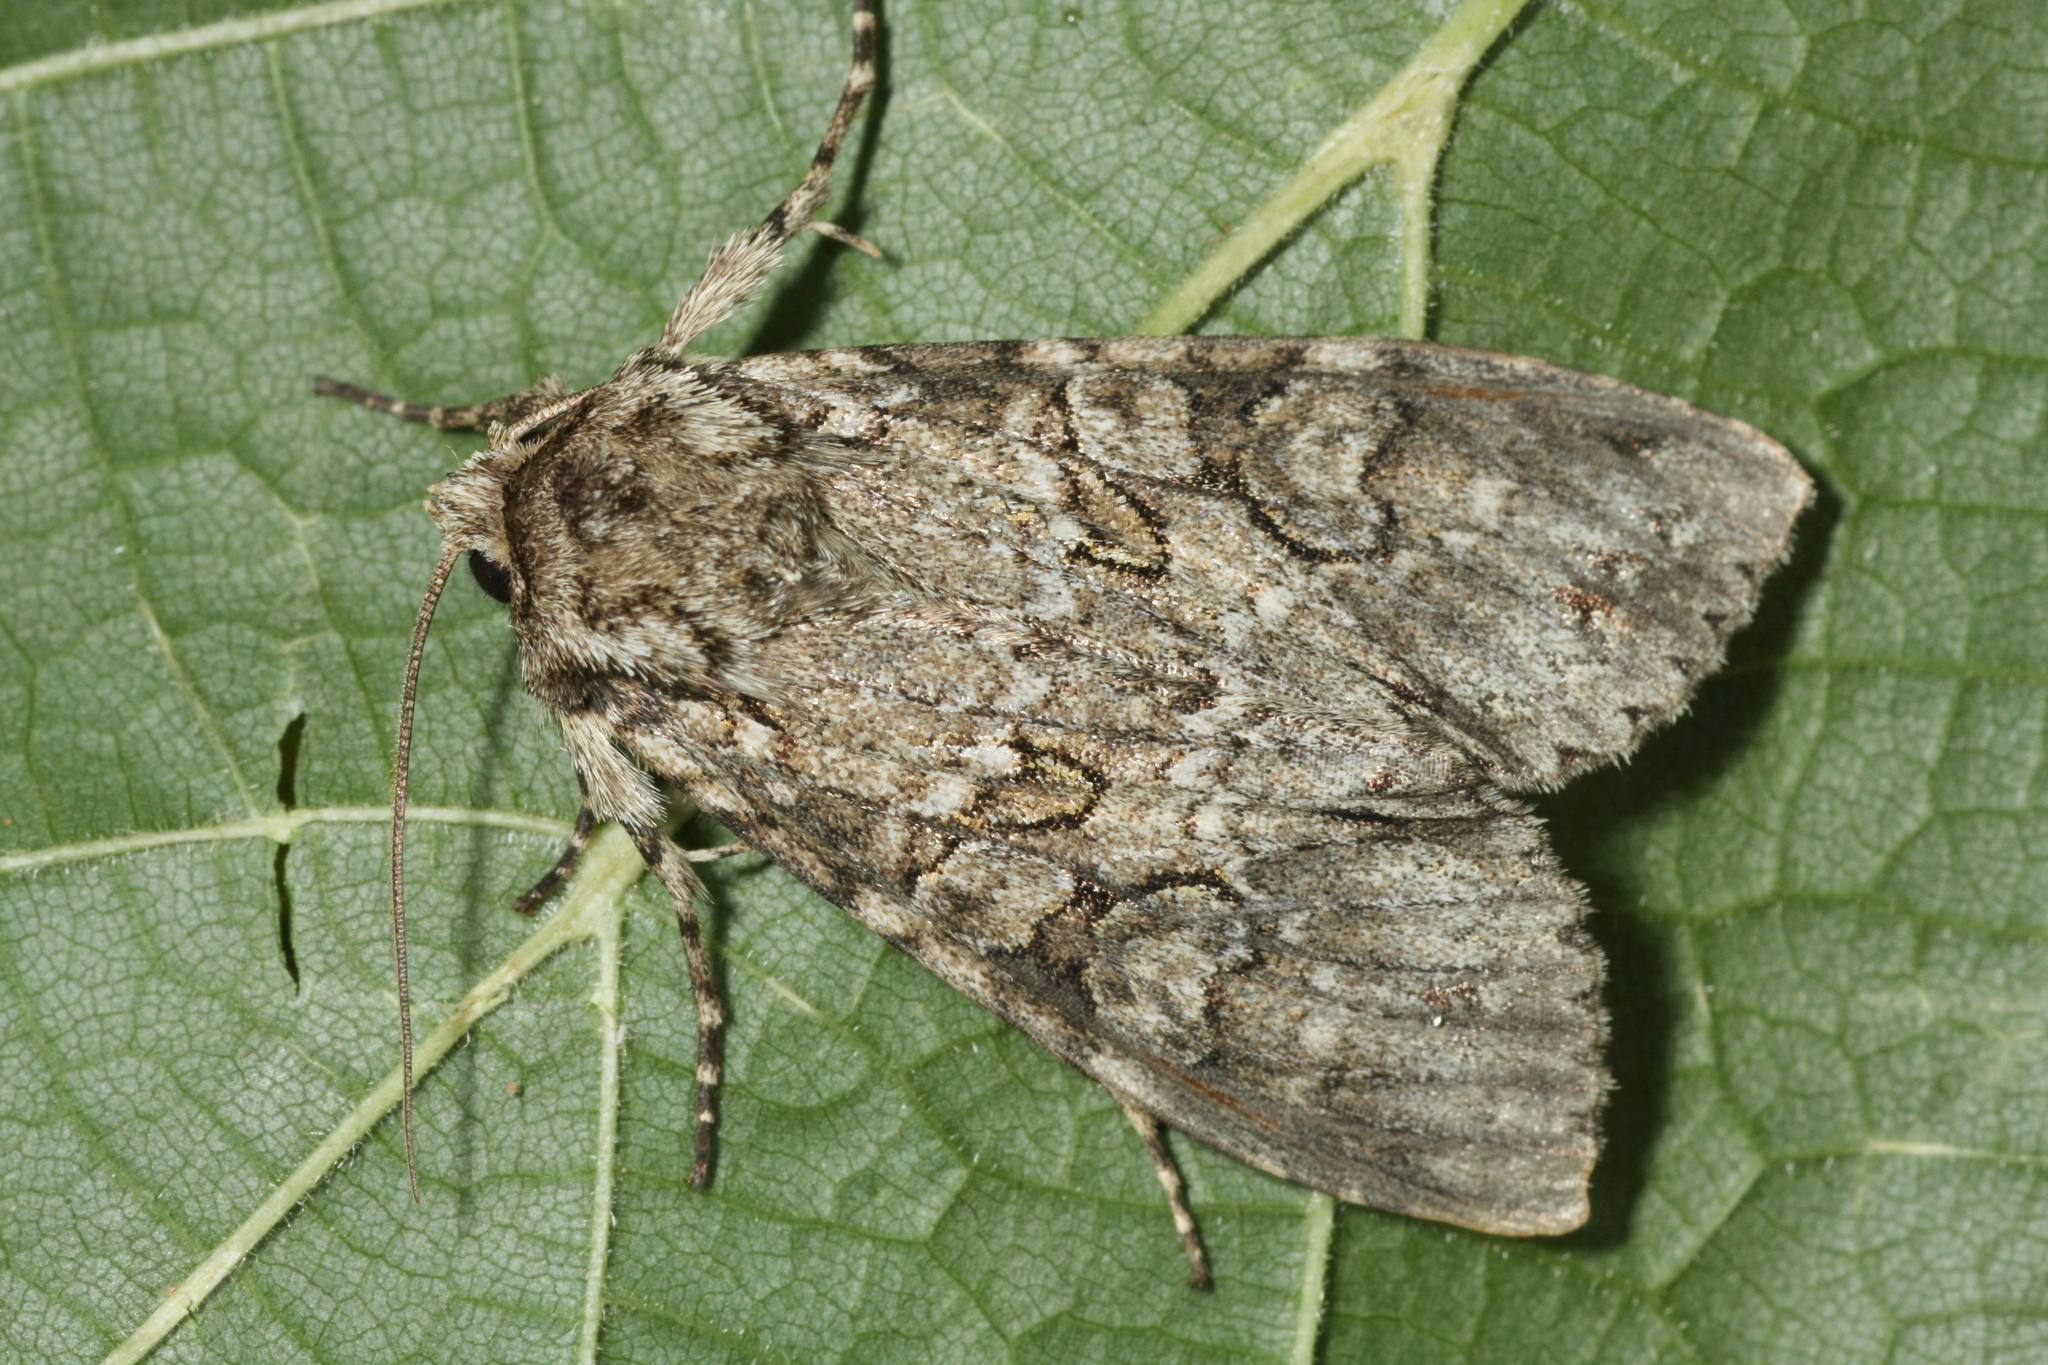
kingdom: Animalia
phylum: Arthropoda
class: Insecta
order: Lepidoptera
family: Noctuidae
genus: Polia
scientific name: Polia nebulosa
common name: Grey arches
